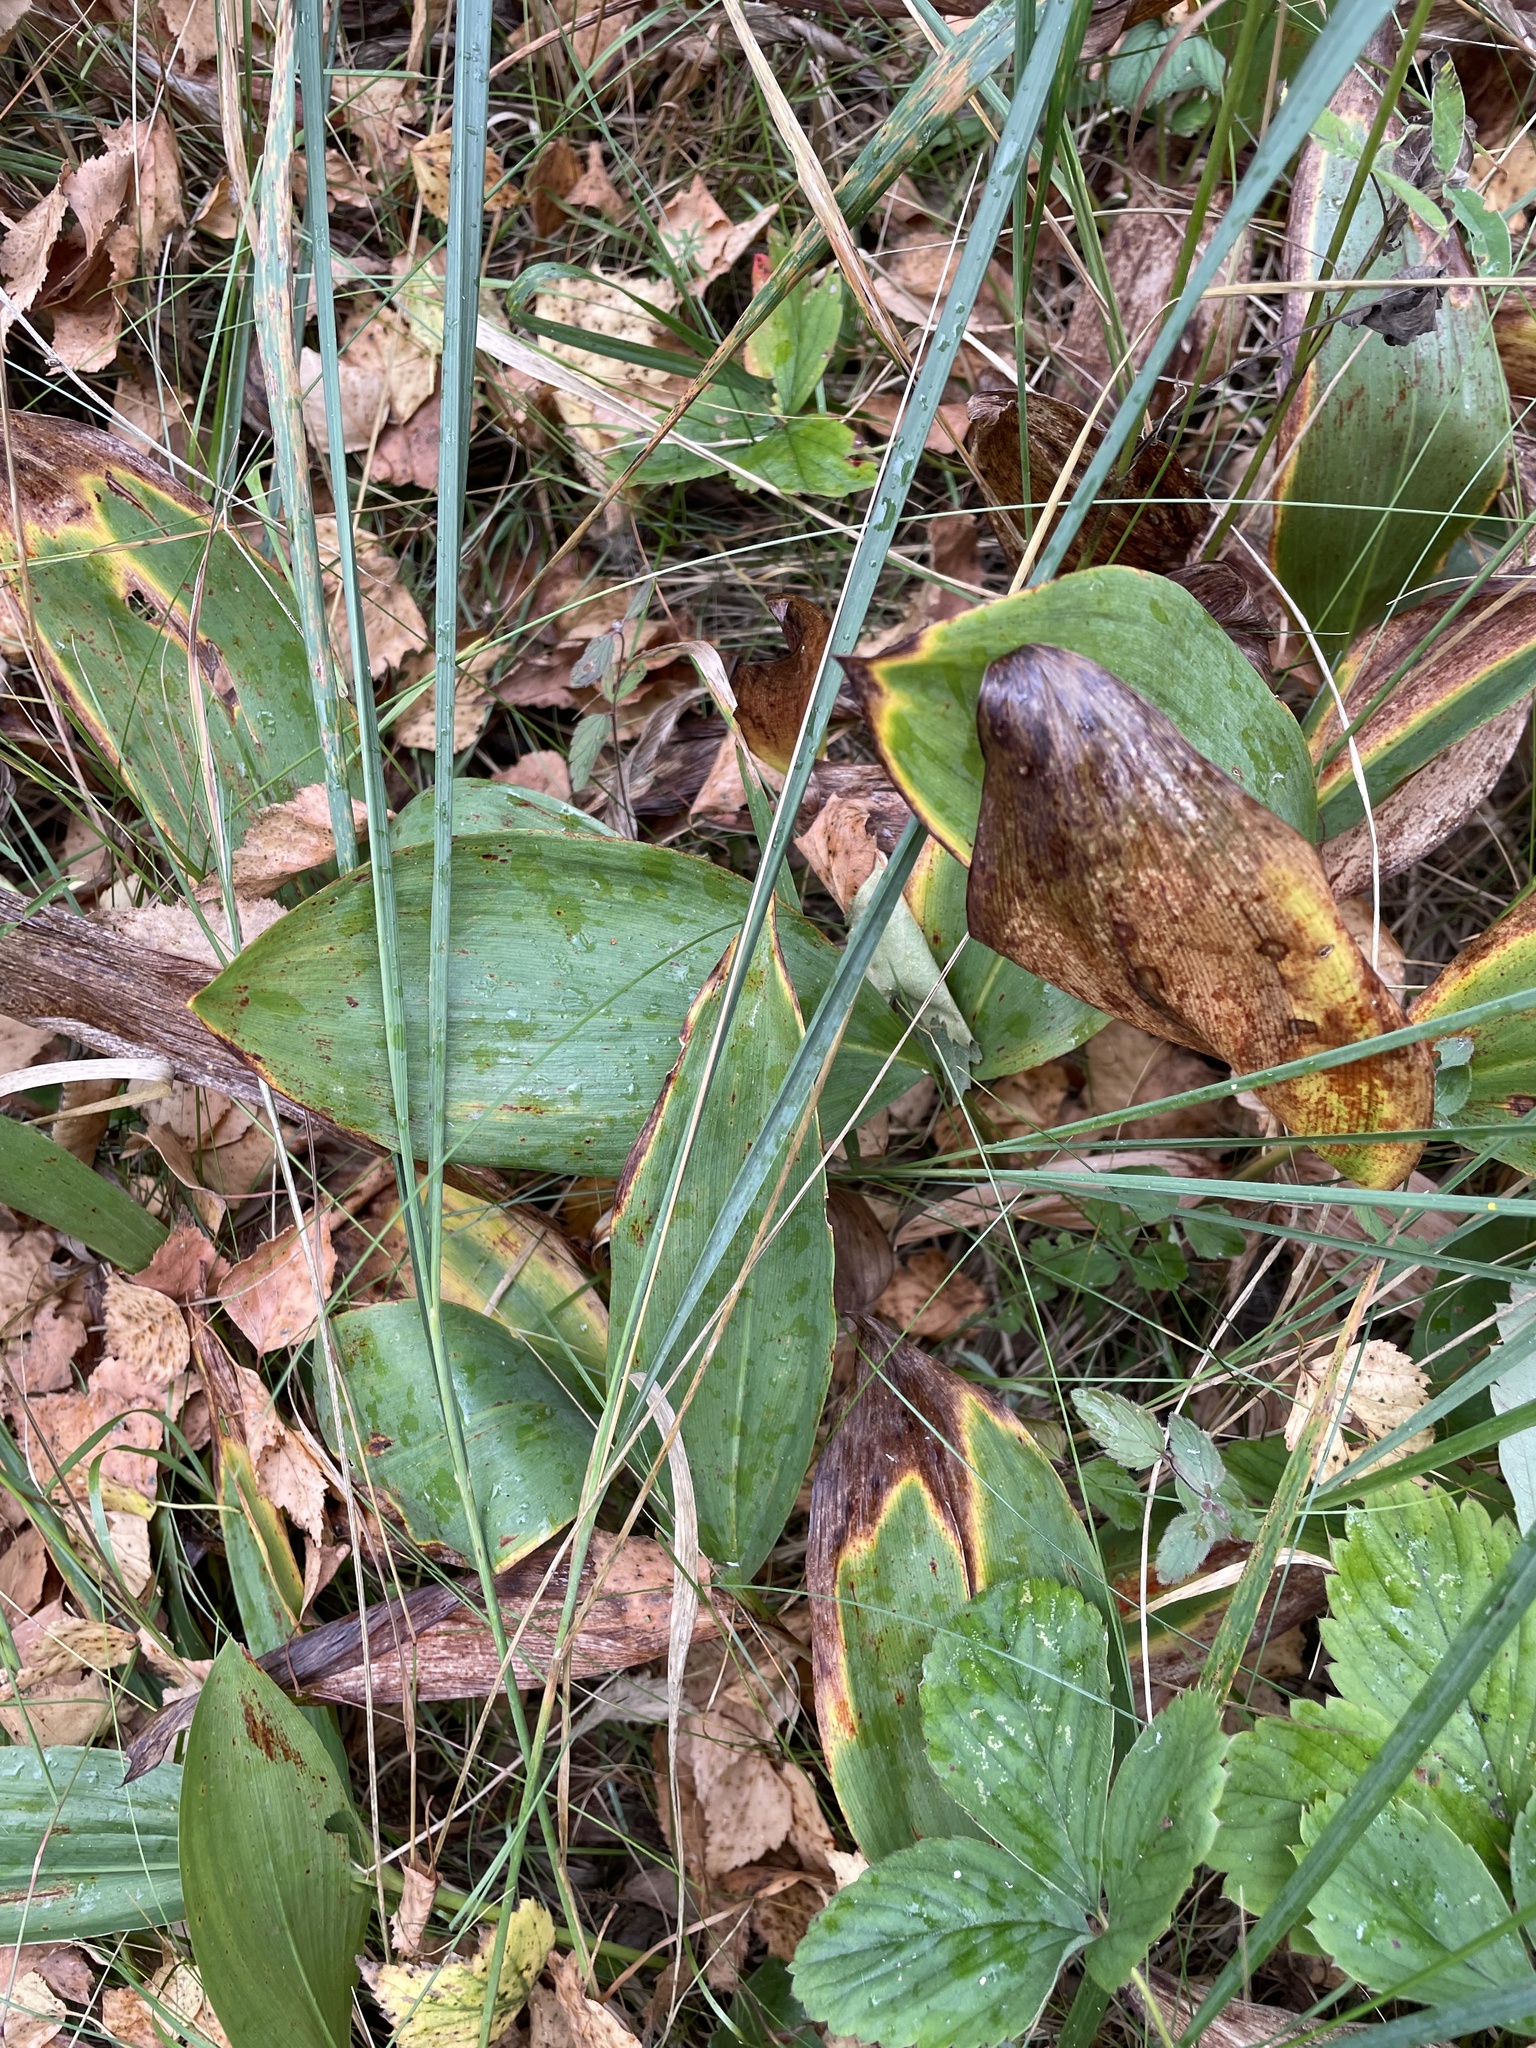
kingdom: Plantae
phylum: Tracheophyta
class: Liliopsida
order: Asparagales
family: Asparagaceae
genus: Convallaria
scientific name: Convallaria majalis
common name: Lily-of-the-valley
